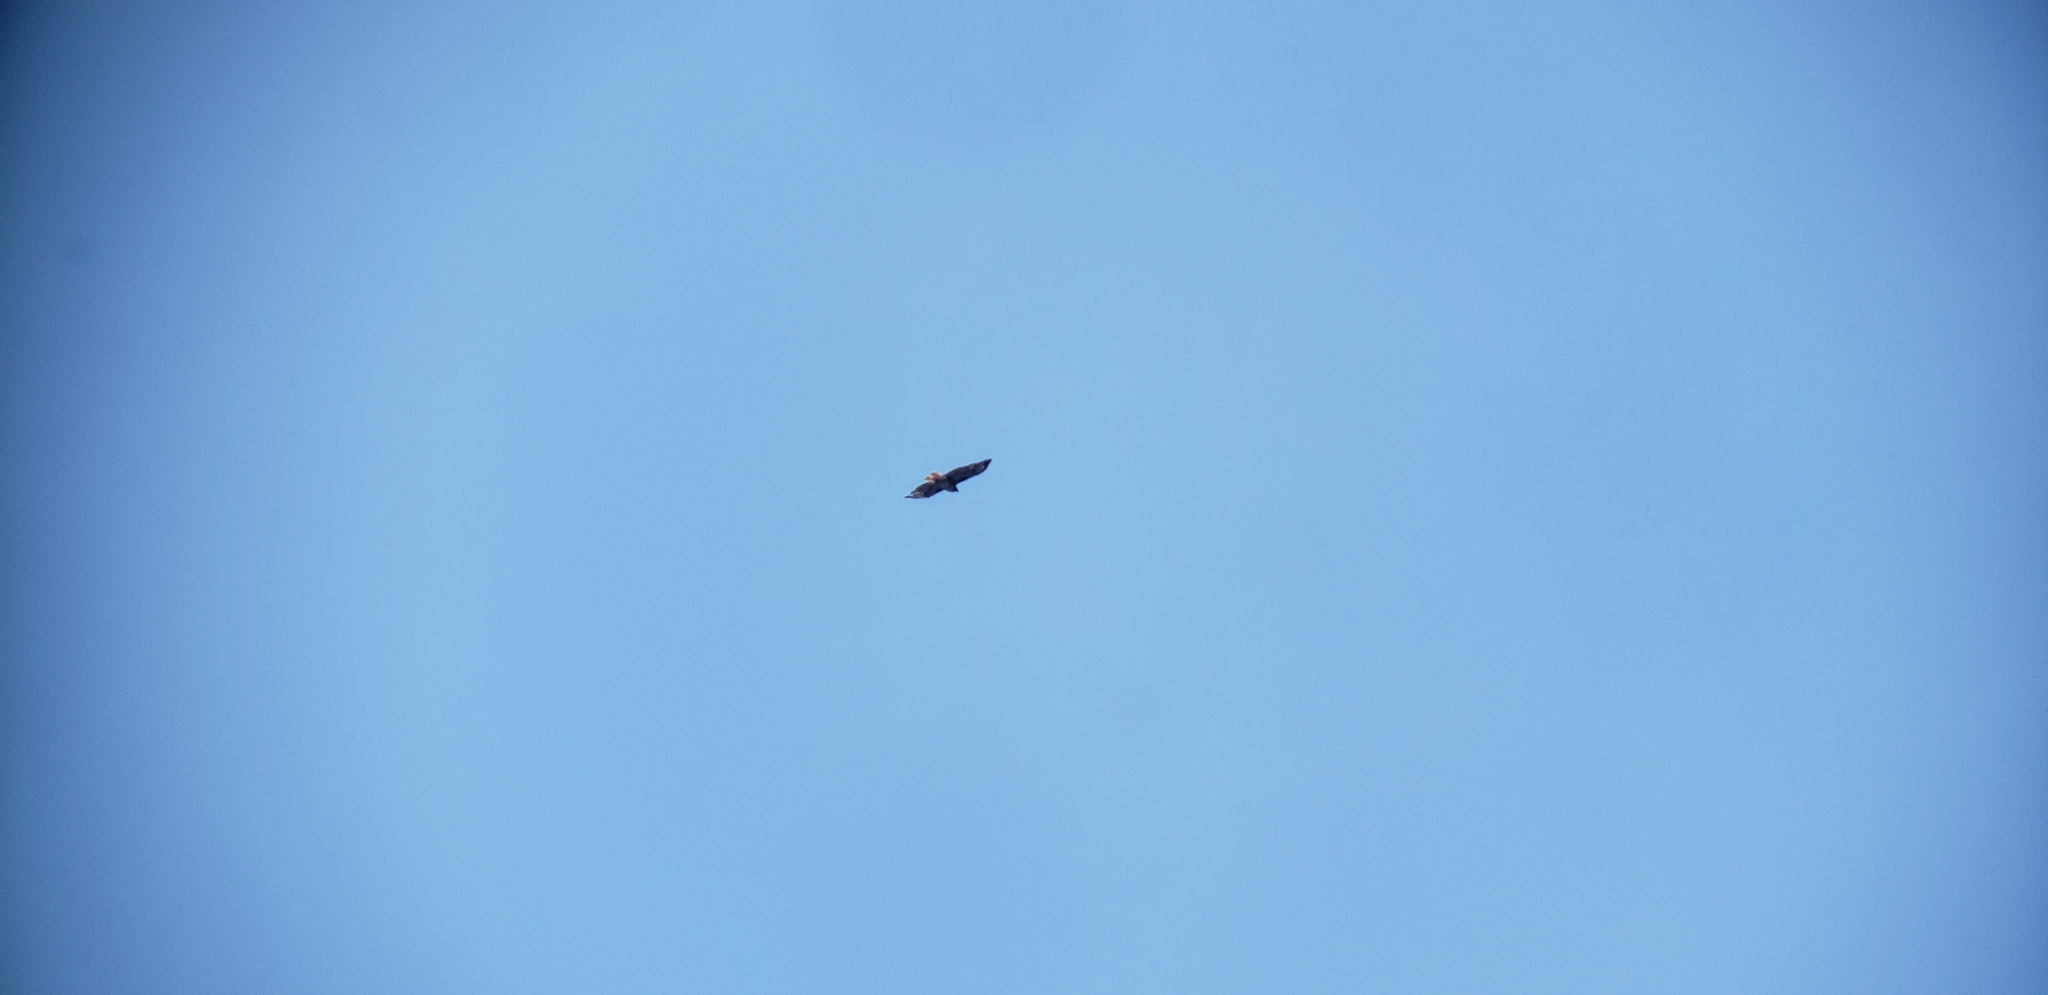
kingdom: Animalia
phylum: Chordata
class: Aves
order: Accipitriformes
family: Accipitridae
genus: Buteo
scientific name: Buteo jamaicensis
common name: Red-tailed hawk
